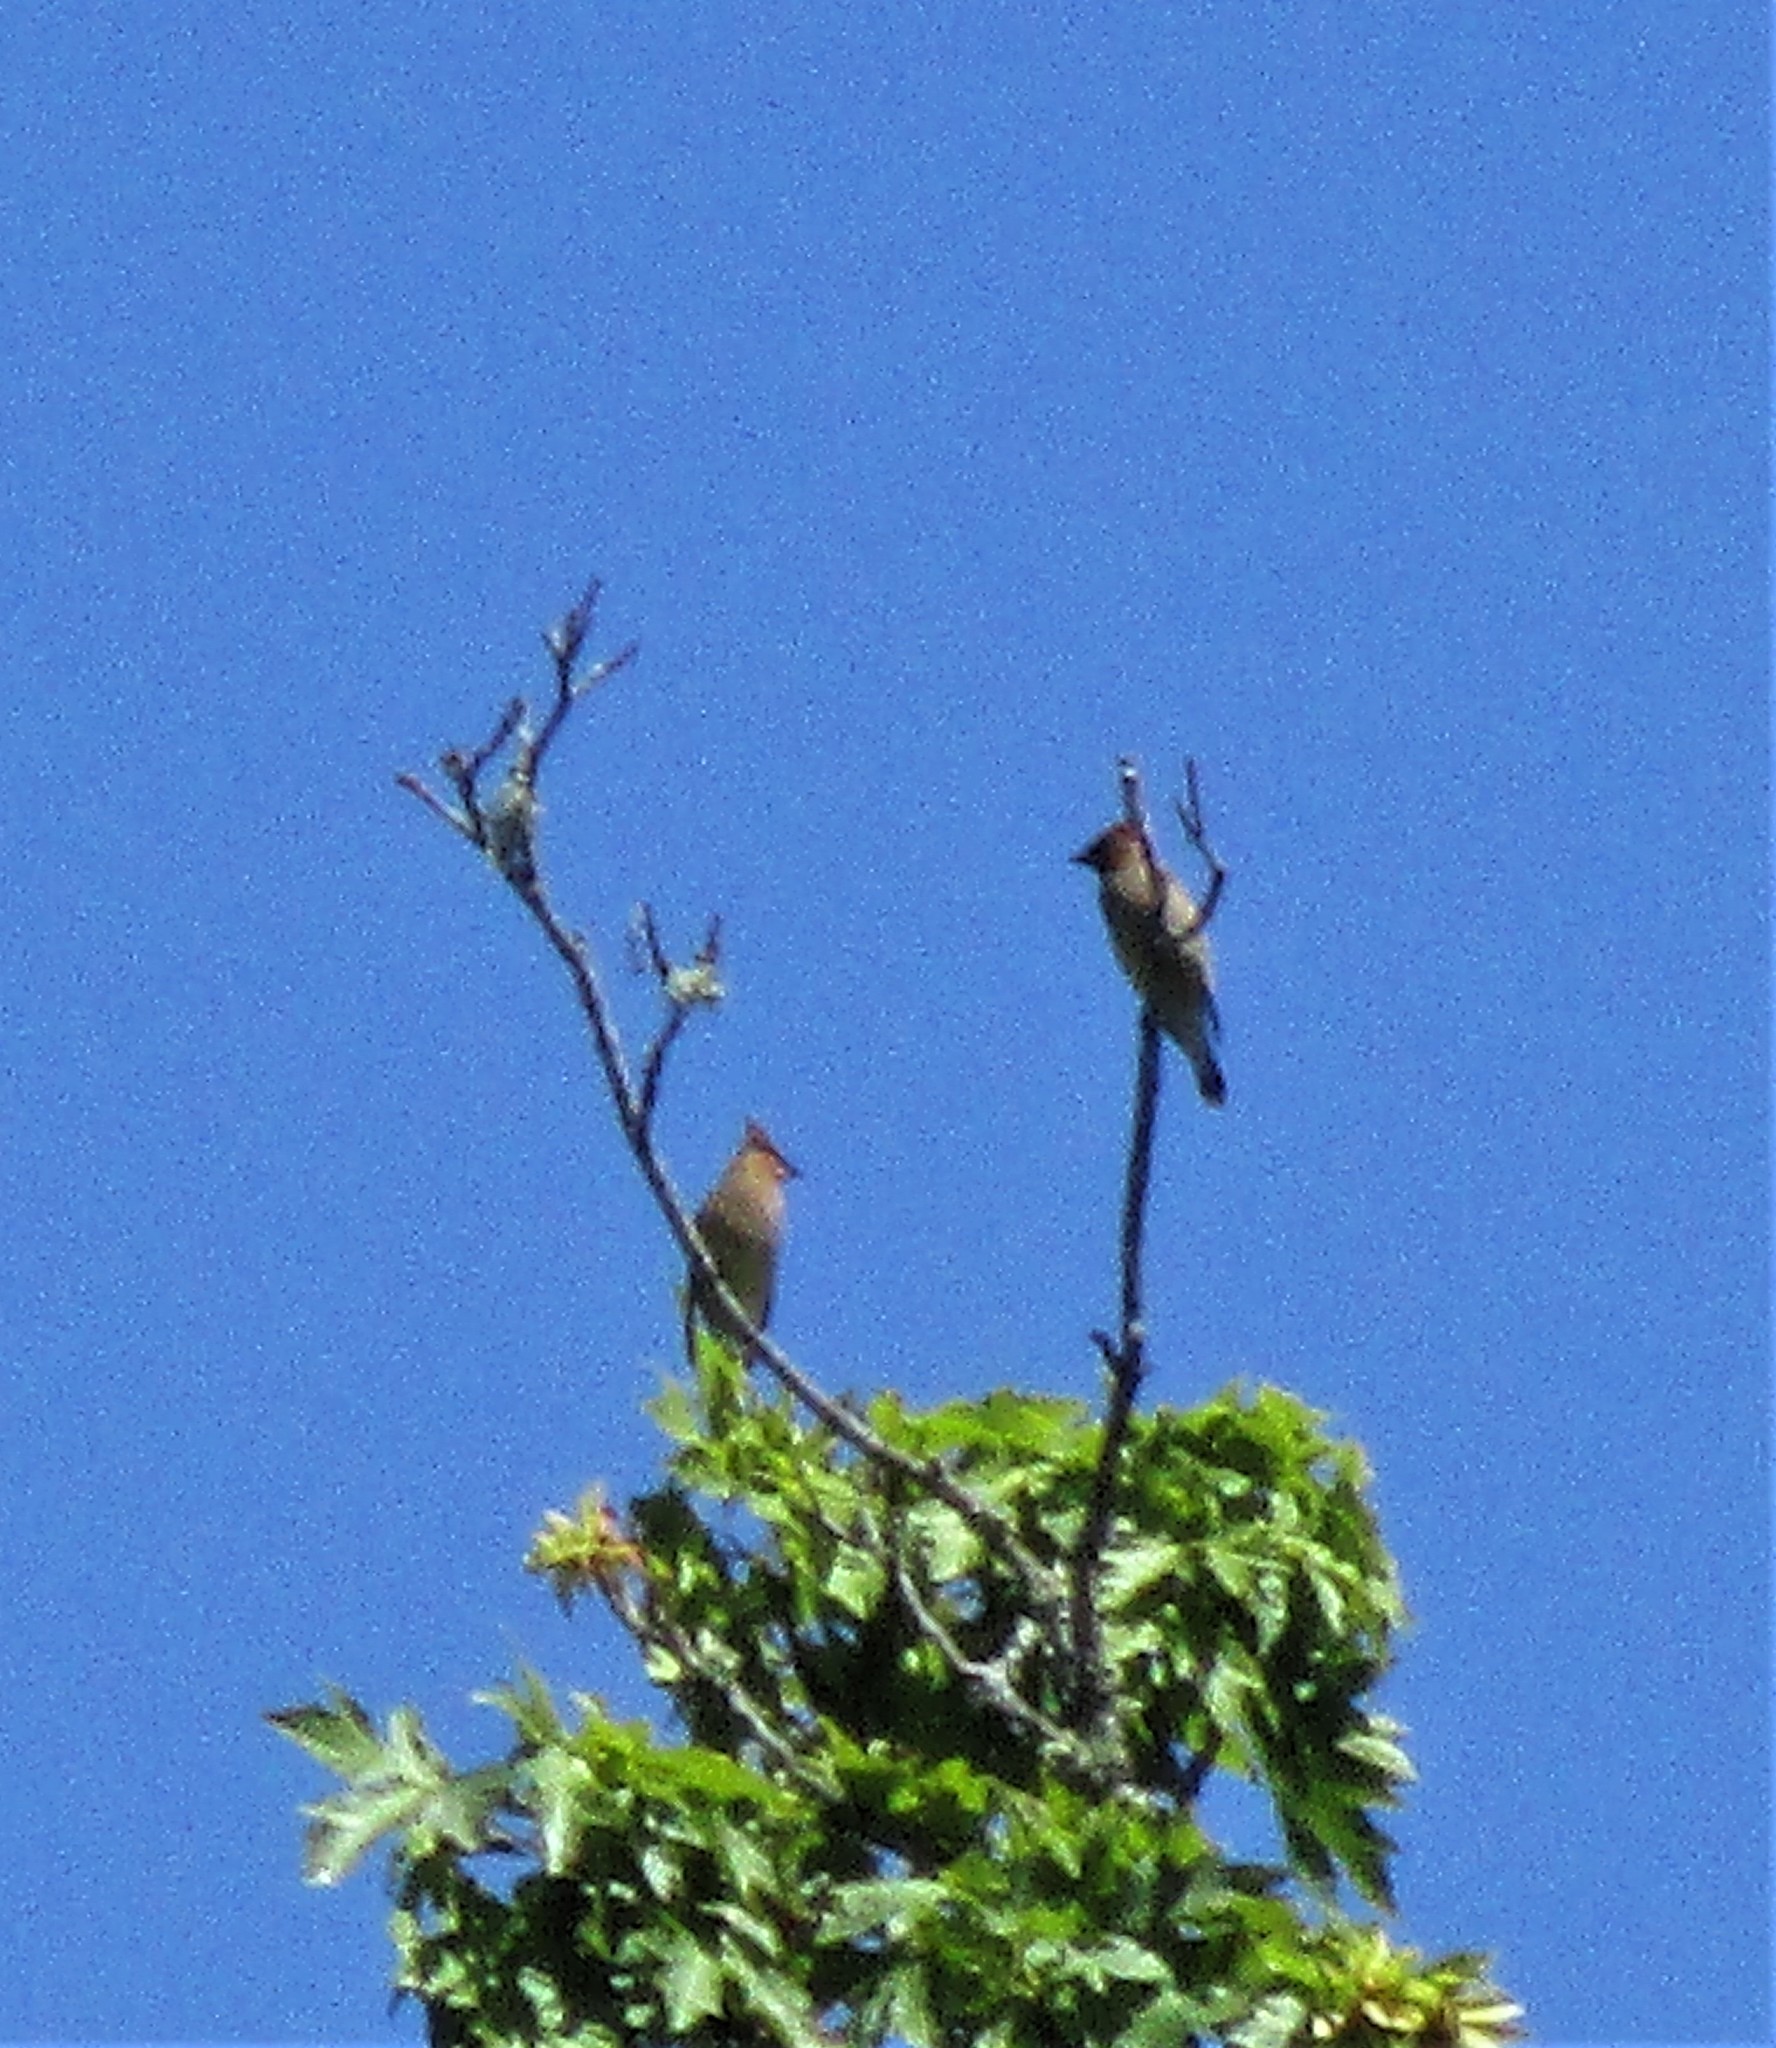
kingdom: Animalia
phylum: Chordata
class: Aves
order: Passeriformes
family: Bombycillidae
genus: Bombycilla
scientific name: Bombycilla cedrorum
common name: Cedar waxwing
